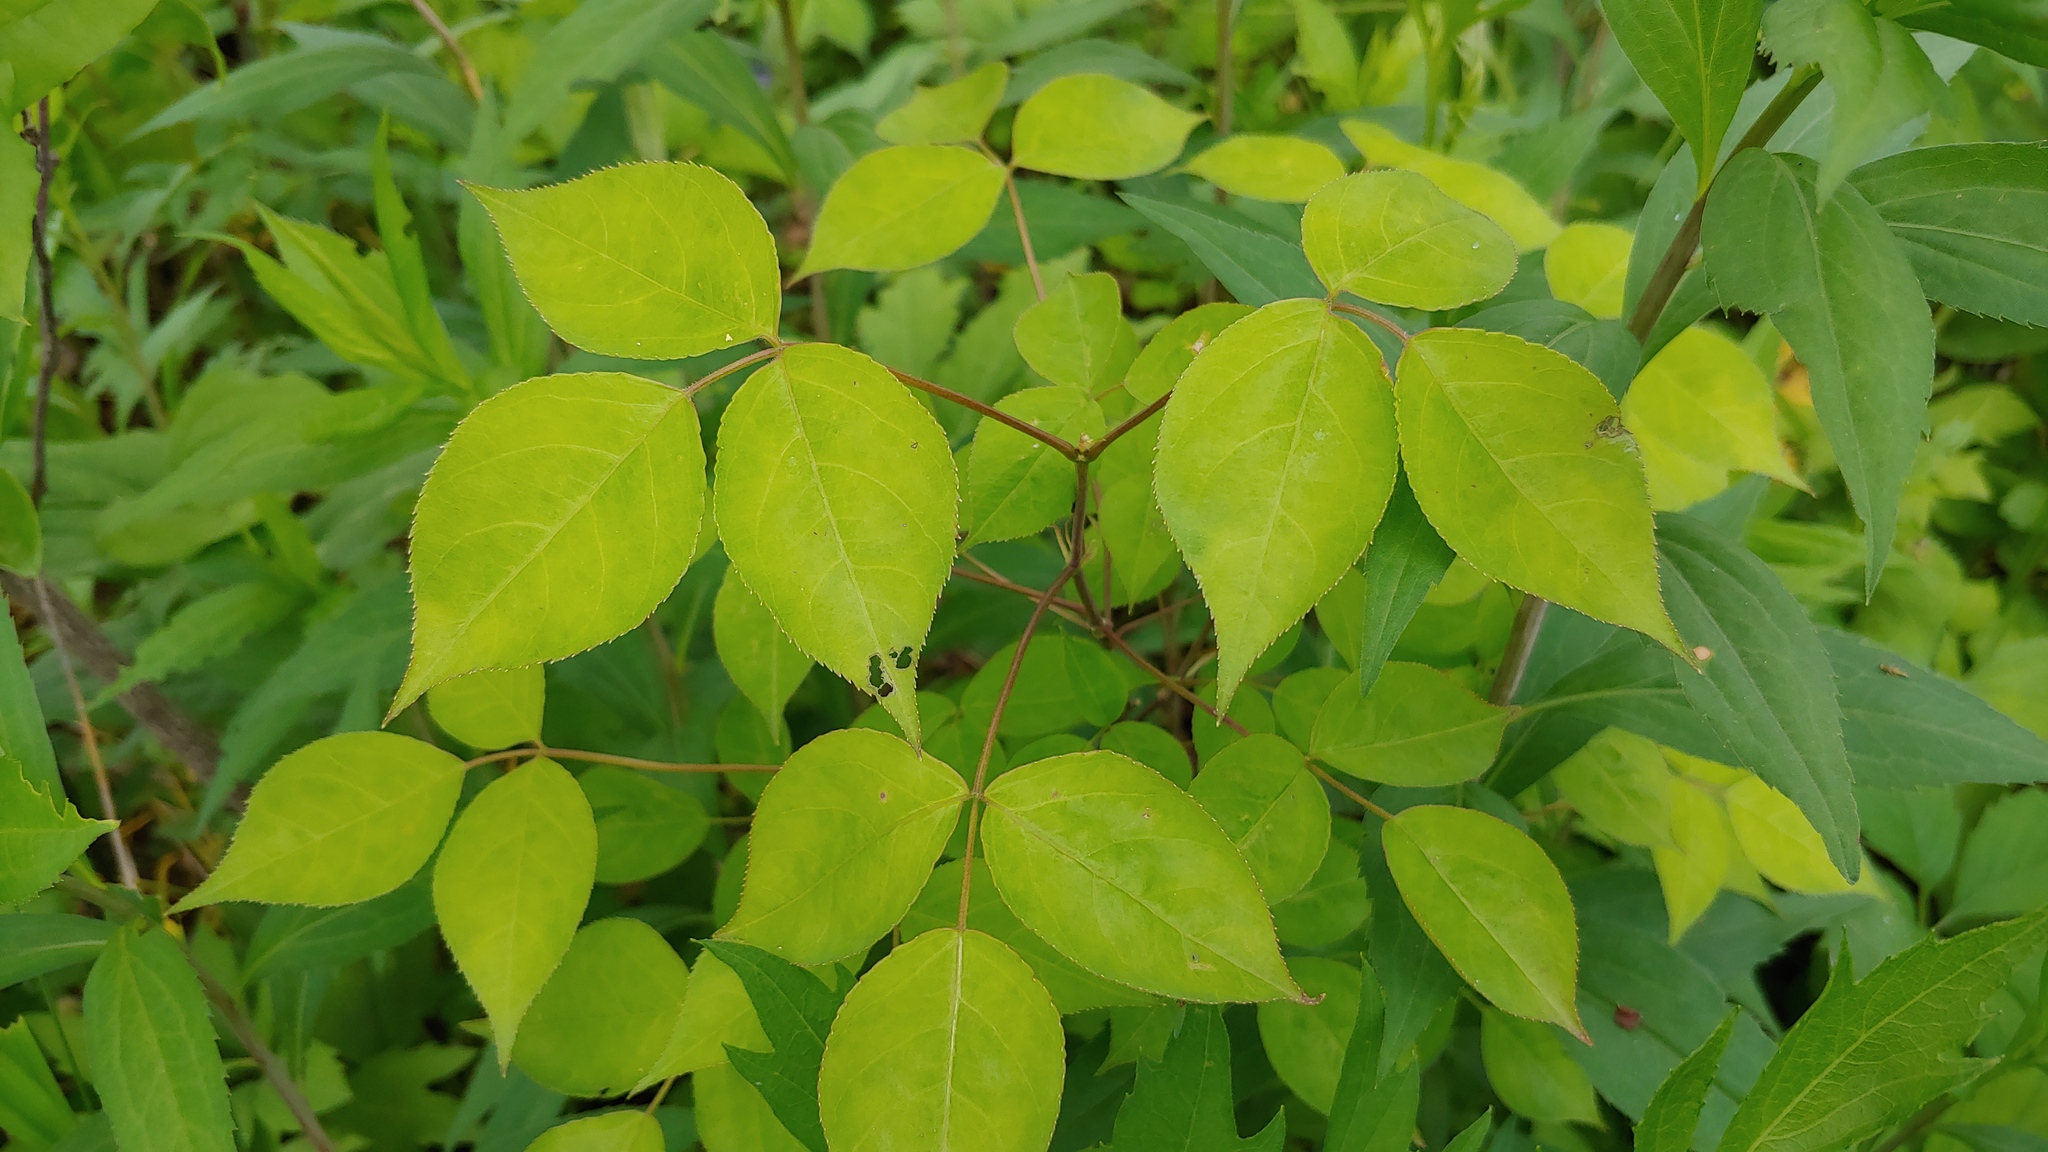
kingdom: Plantae
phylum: Tracheophyta
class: Magnoliopsida
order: Crossosomatales
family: Staphyleaceae
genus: Staphylea
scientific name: Staphylea trifolia
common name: American bladdernut
